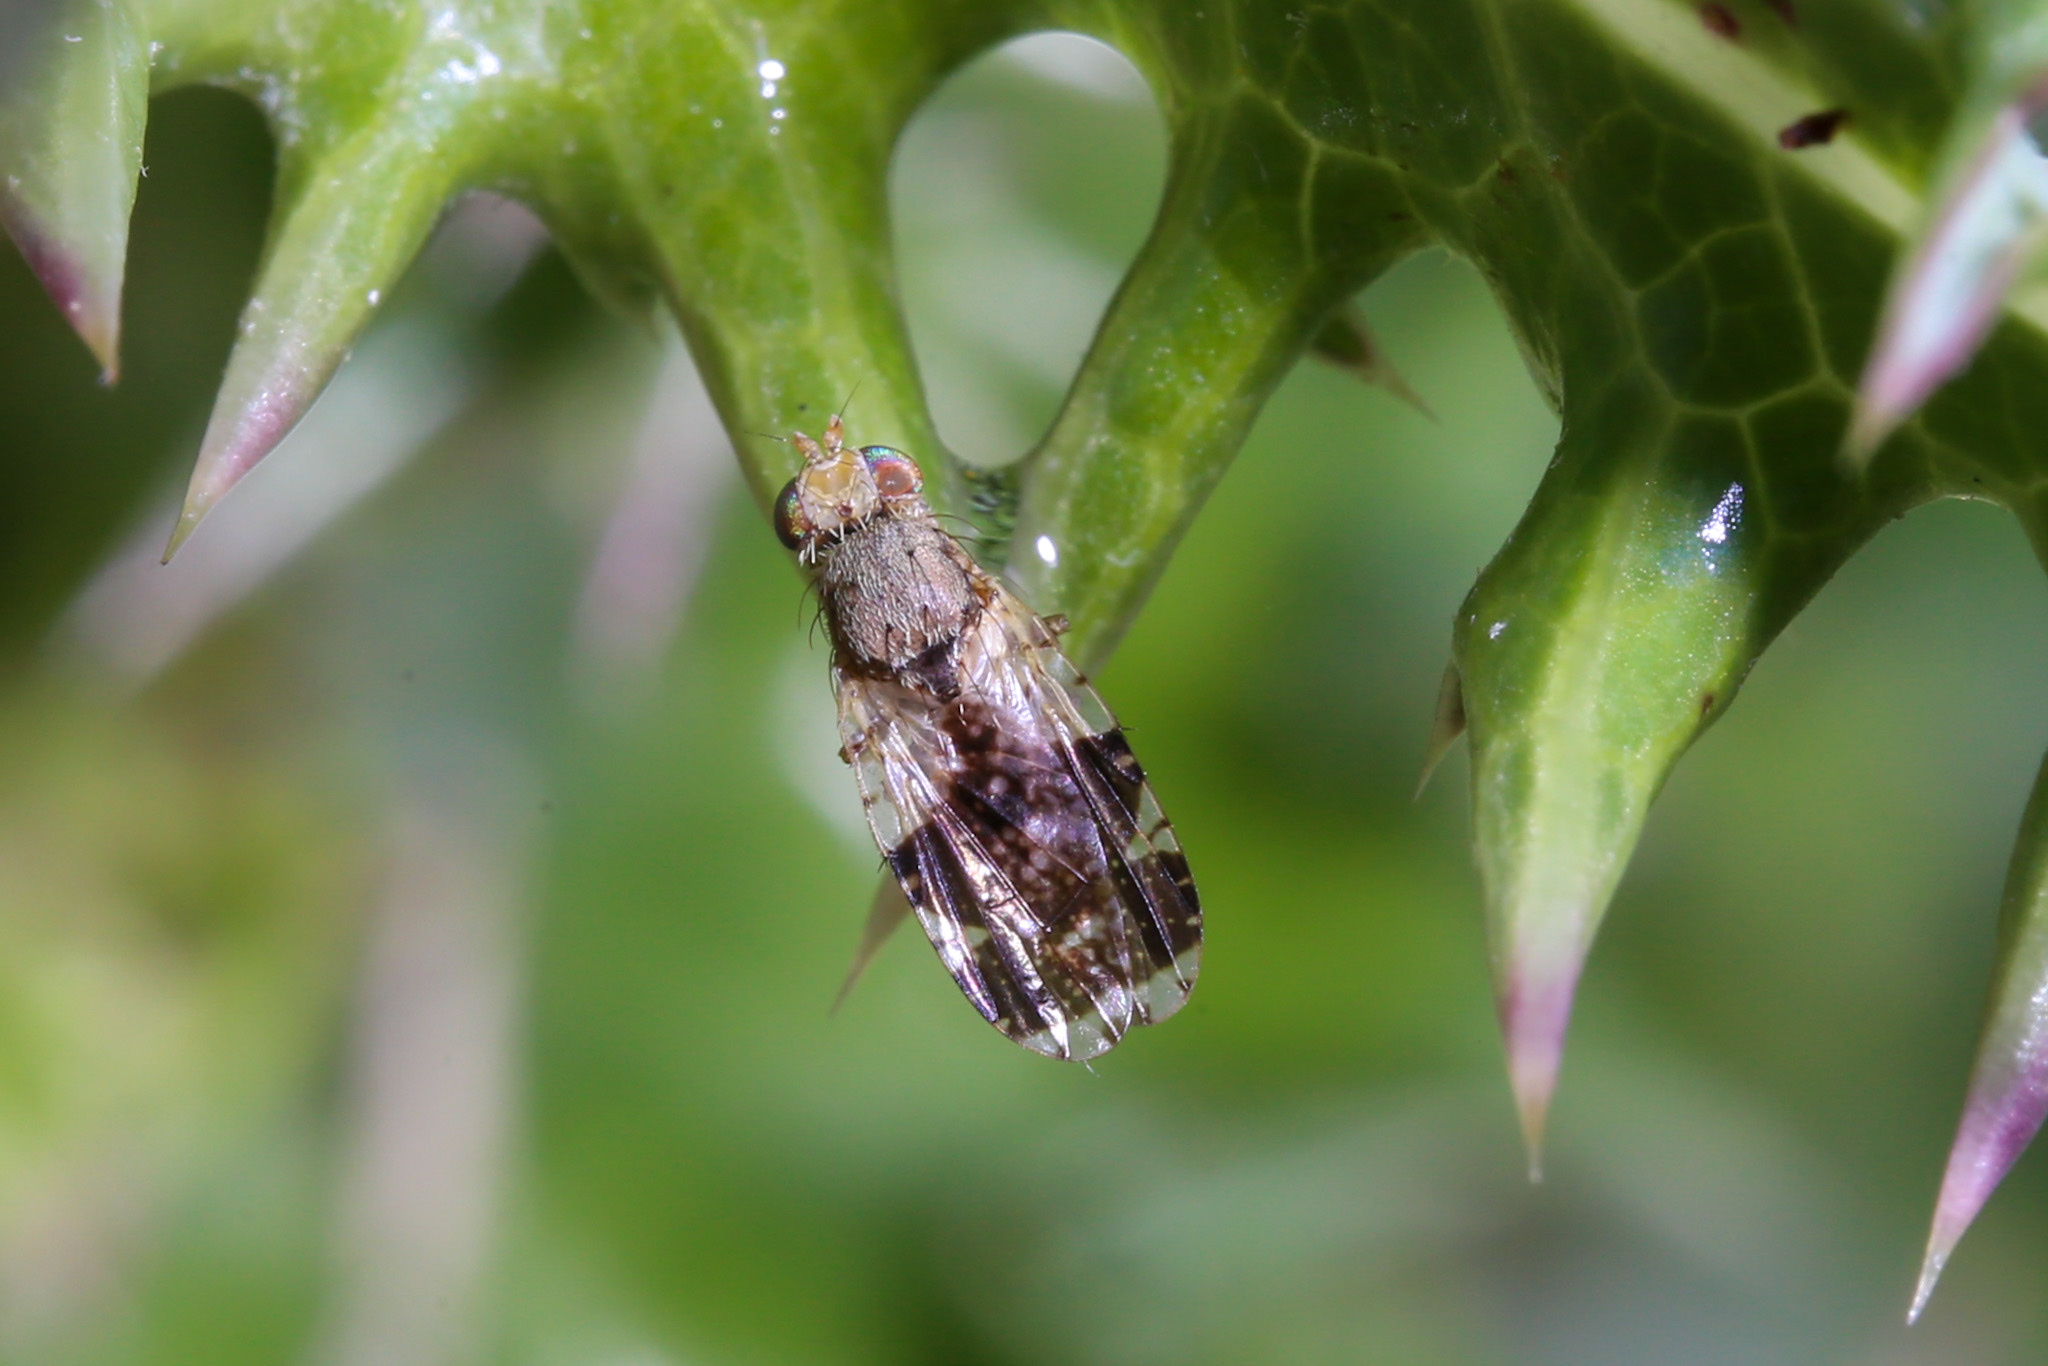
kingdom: Animalia
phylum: Arthropoda
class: Insecta
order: Diptera
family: Tephritidae
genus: Tephritis
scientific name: Tephritis formosa
